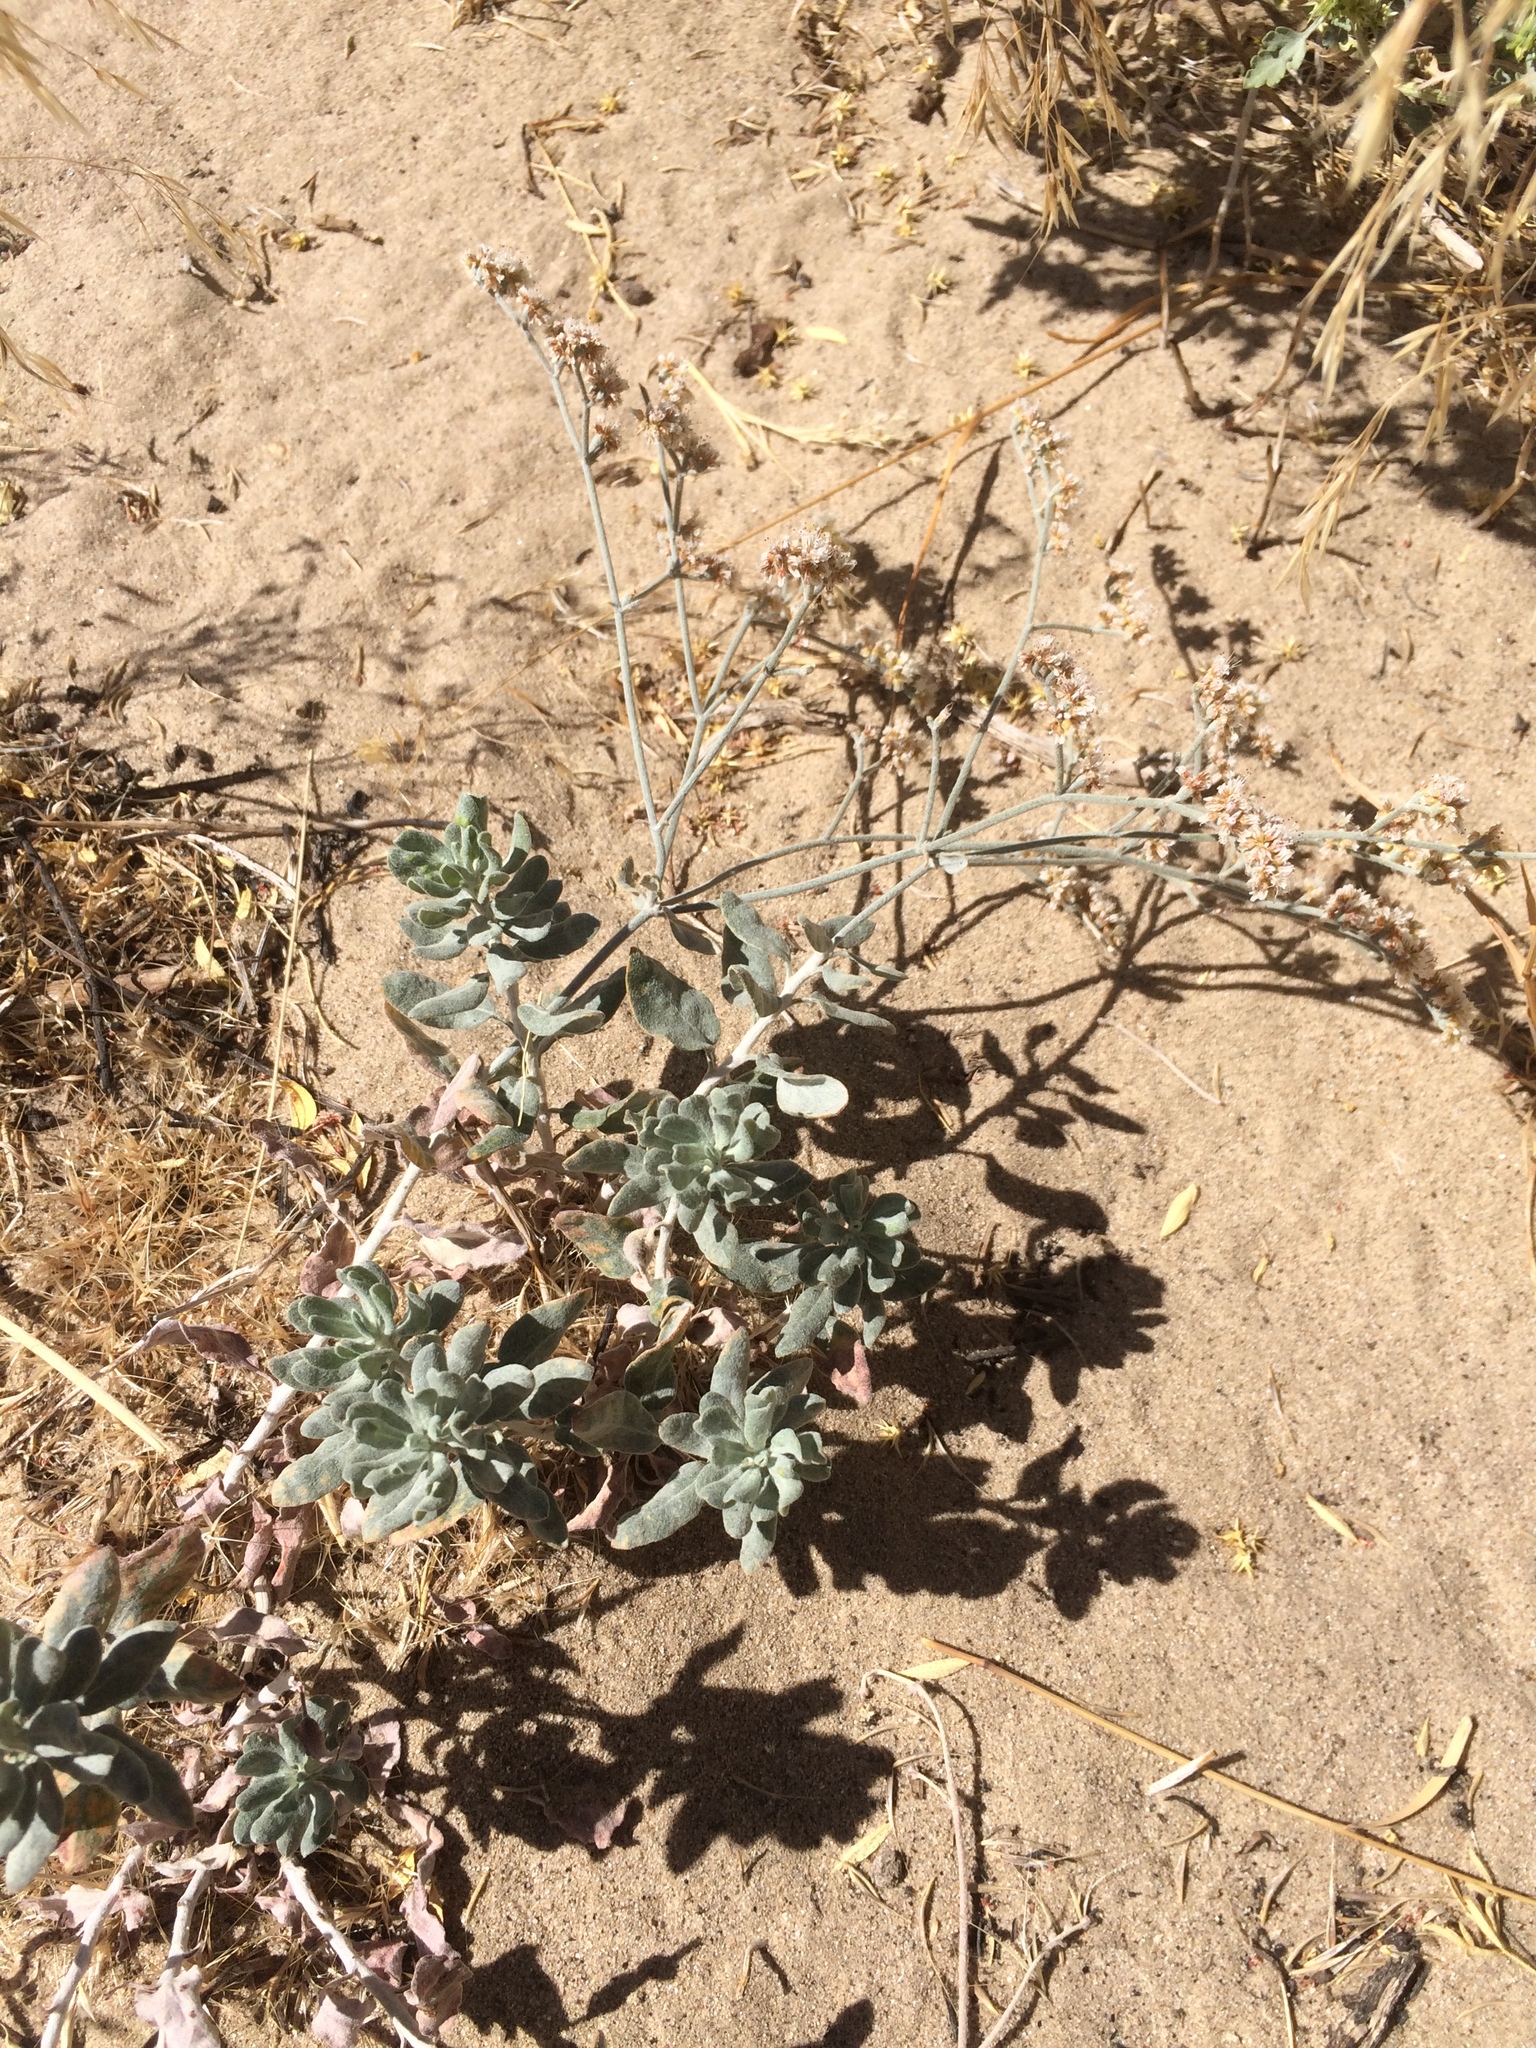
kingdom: Plantae
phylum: Tracheophyta
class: Magnoliopsida
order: Caryophyllales
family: Polygonaceae
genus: Eriogonum
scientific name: Eriogonum nummulare
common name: Kearney wild buckwheat
